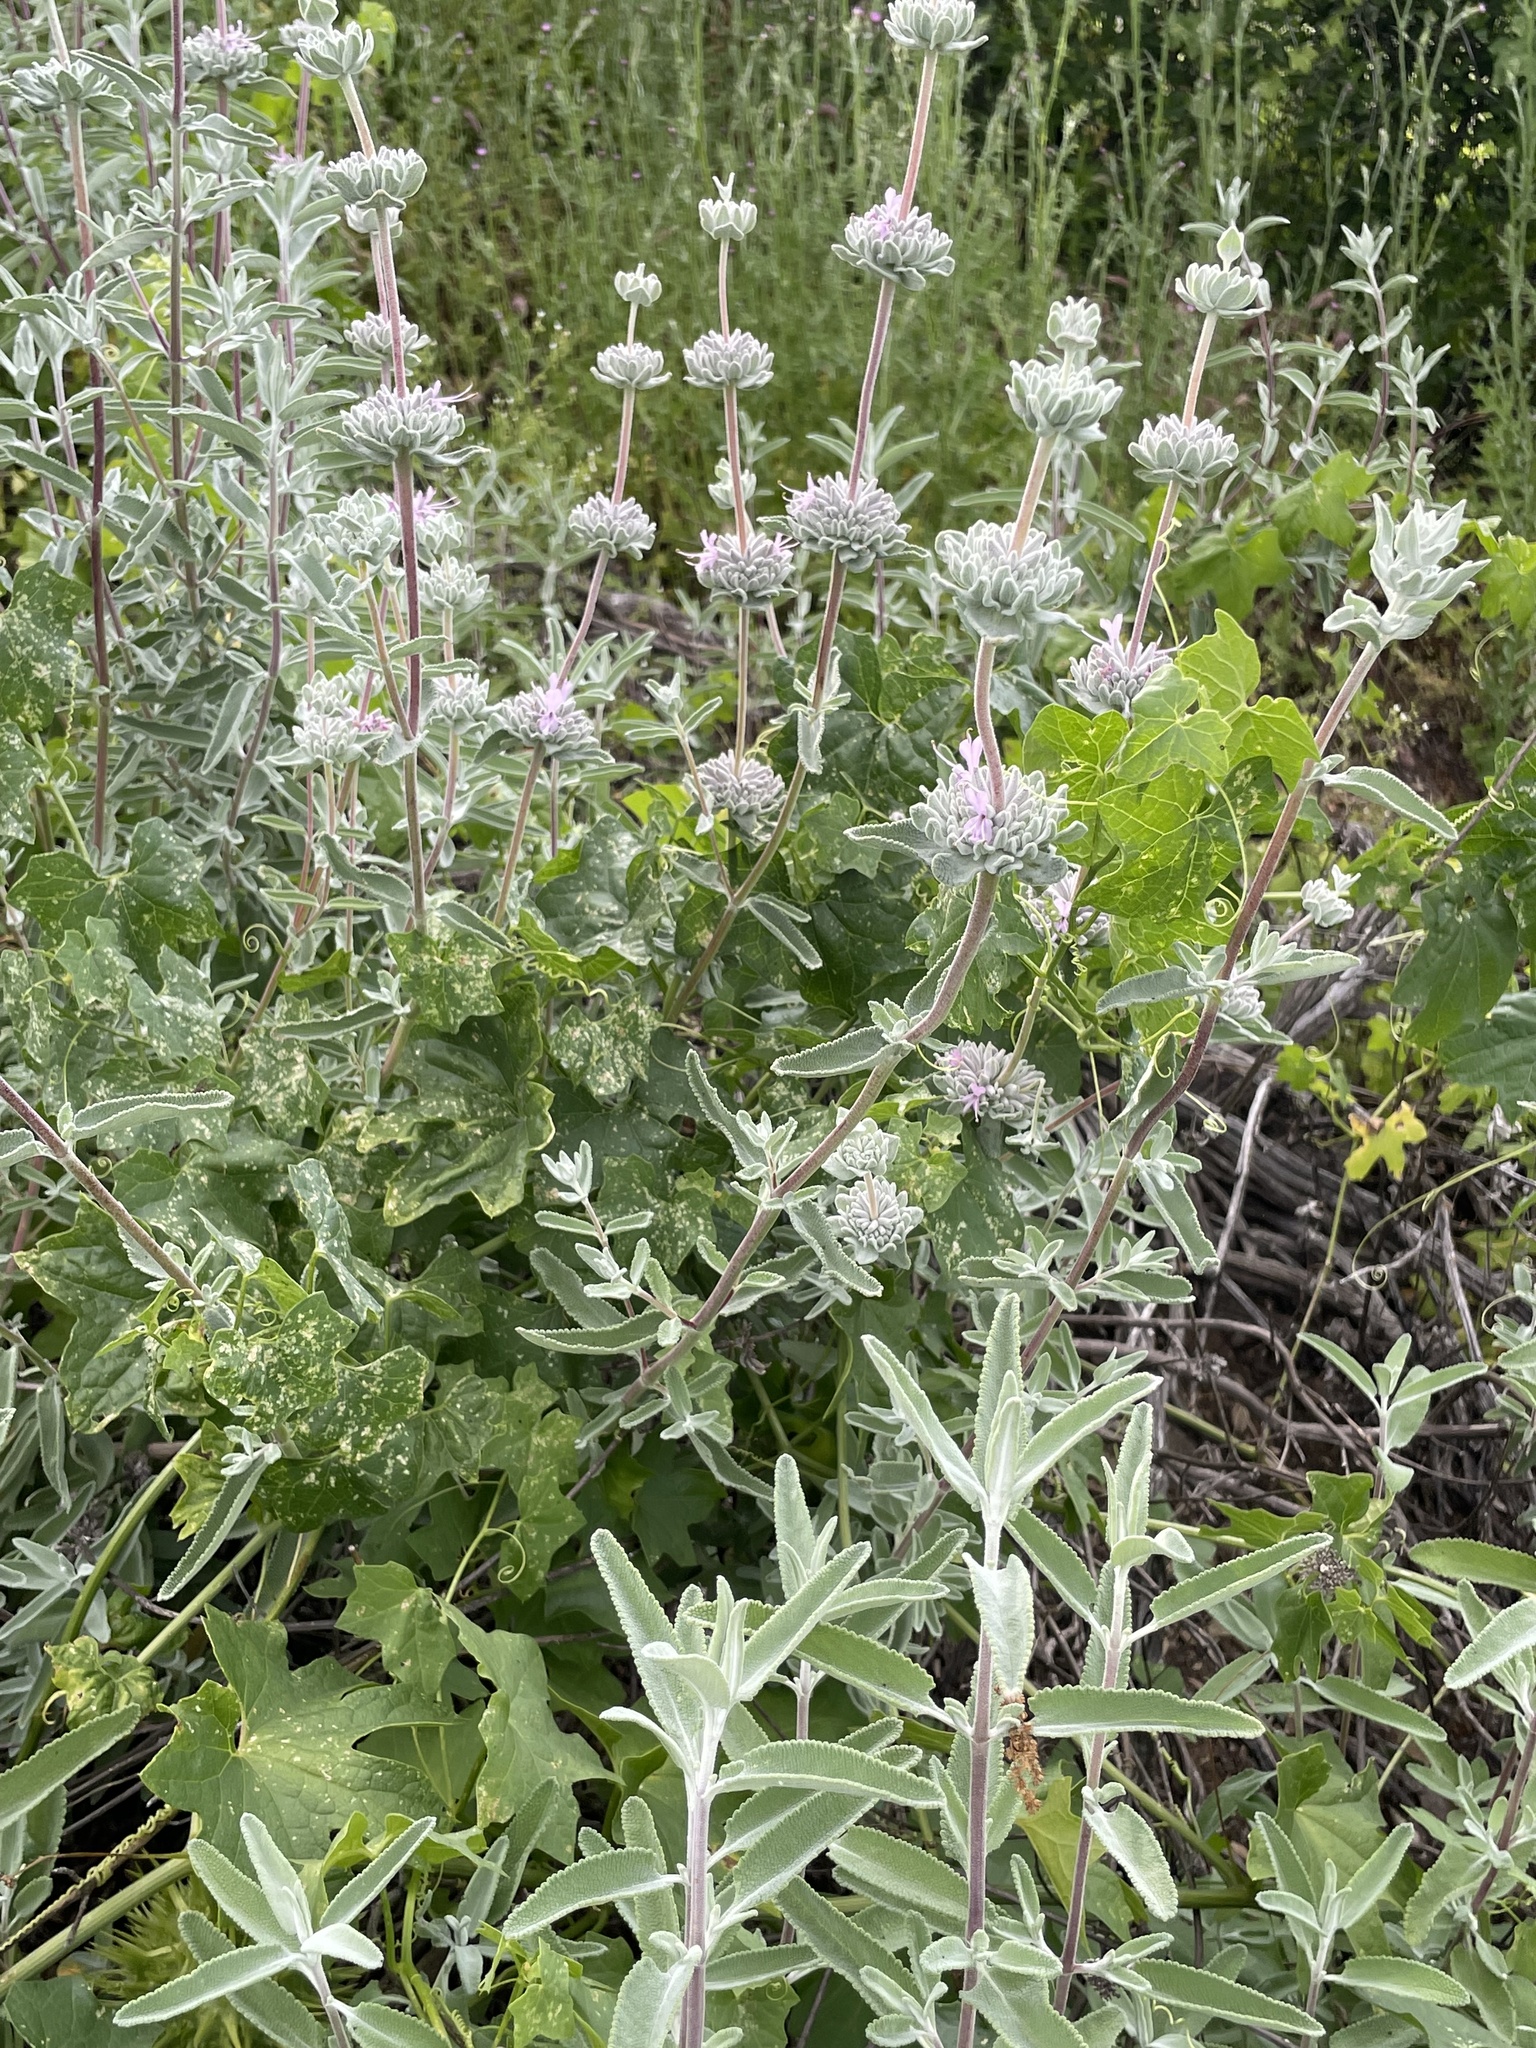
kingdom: Plantae
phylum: Tracheophyta
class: Magnoliopsida
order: Lamiales
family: Lamiaceae
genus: Salvia
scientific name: Salvia leucophylla
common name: Purple sage
